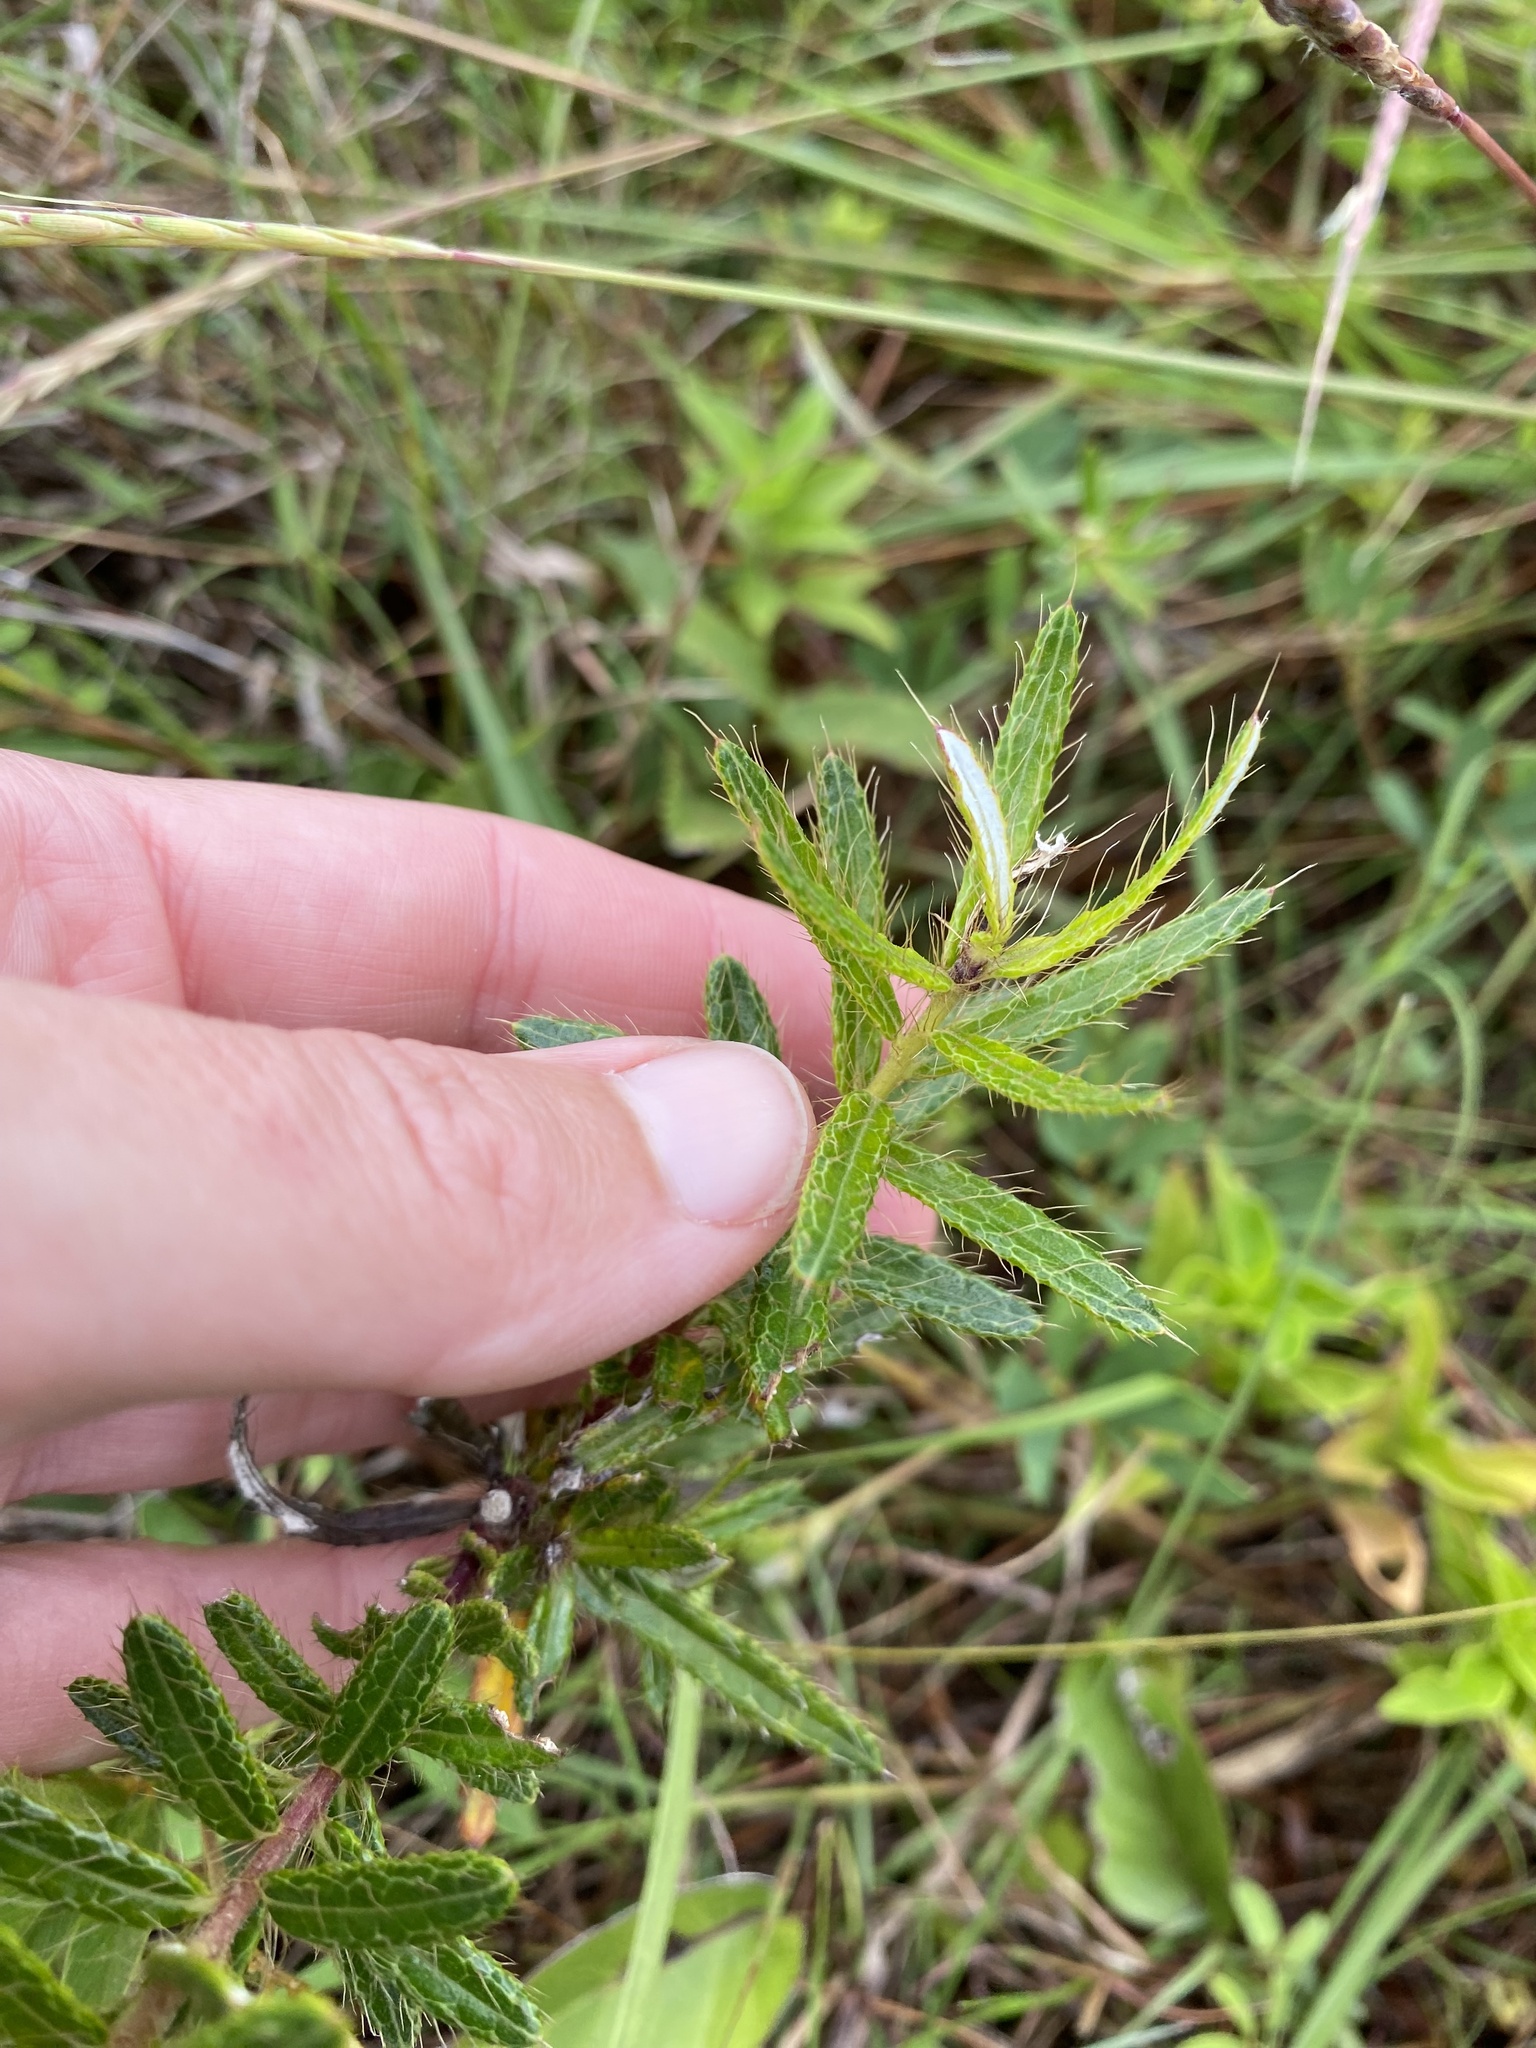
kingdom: Plantae
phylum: Tracheophyta
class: Magnoliopsida
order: Asterales
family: Asteraceae
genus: Berkheya
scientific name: Berkheya insignis
